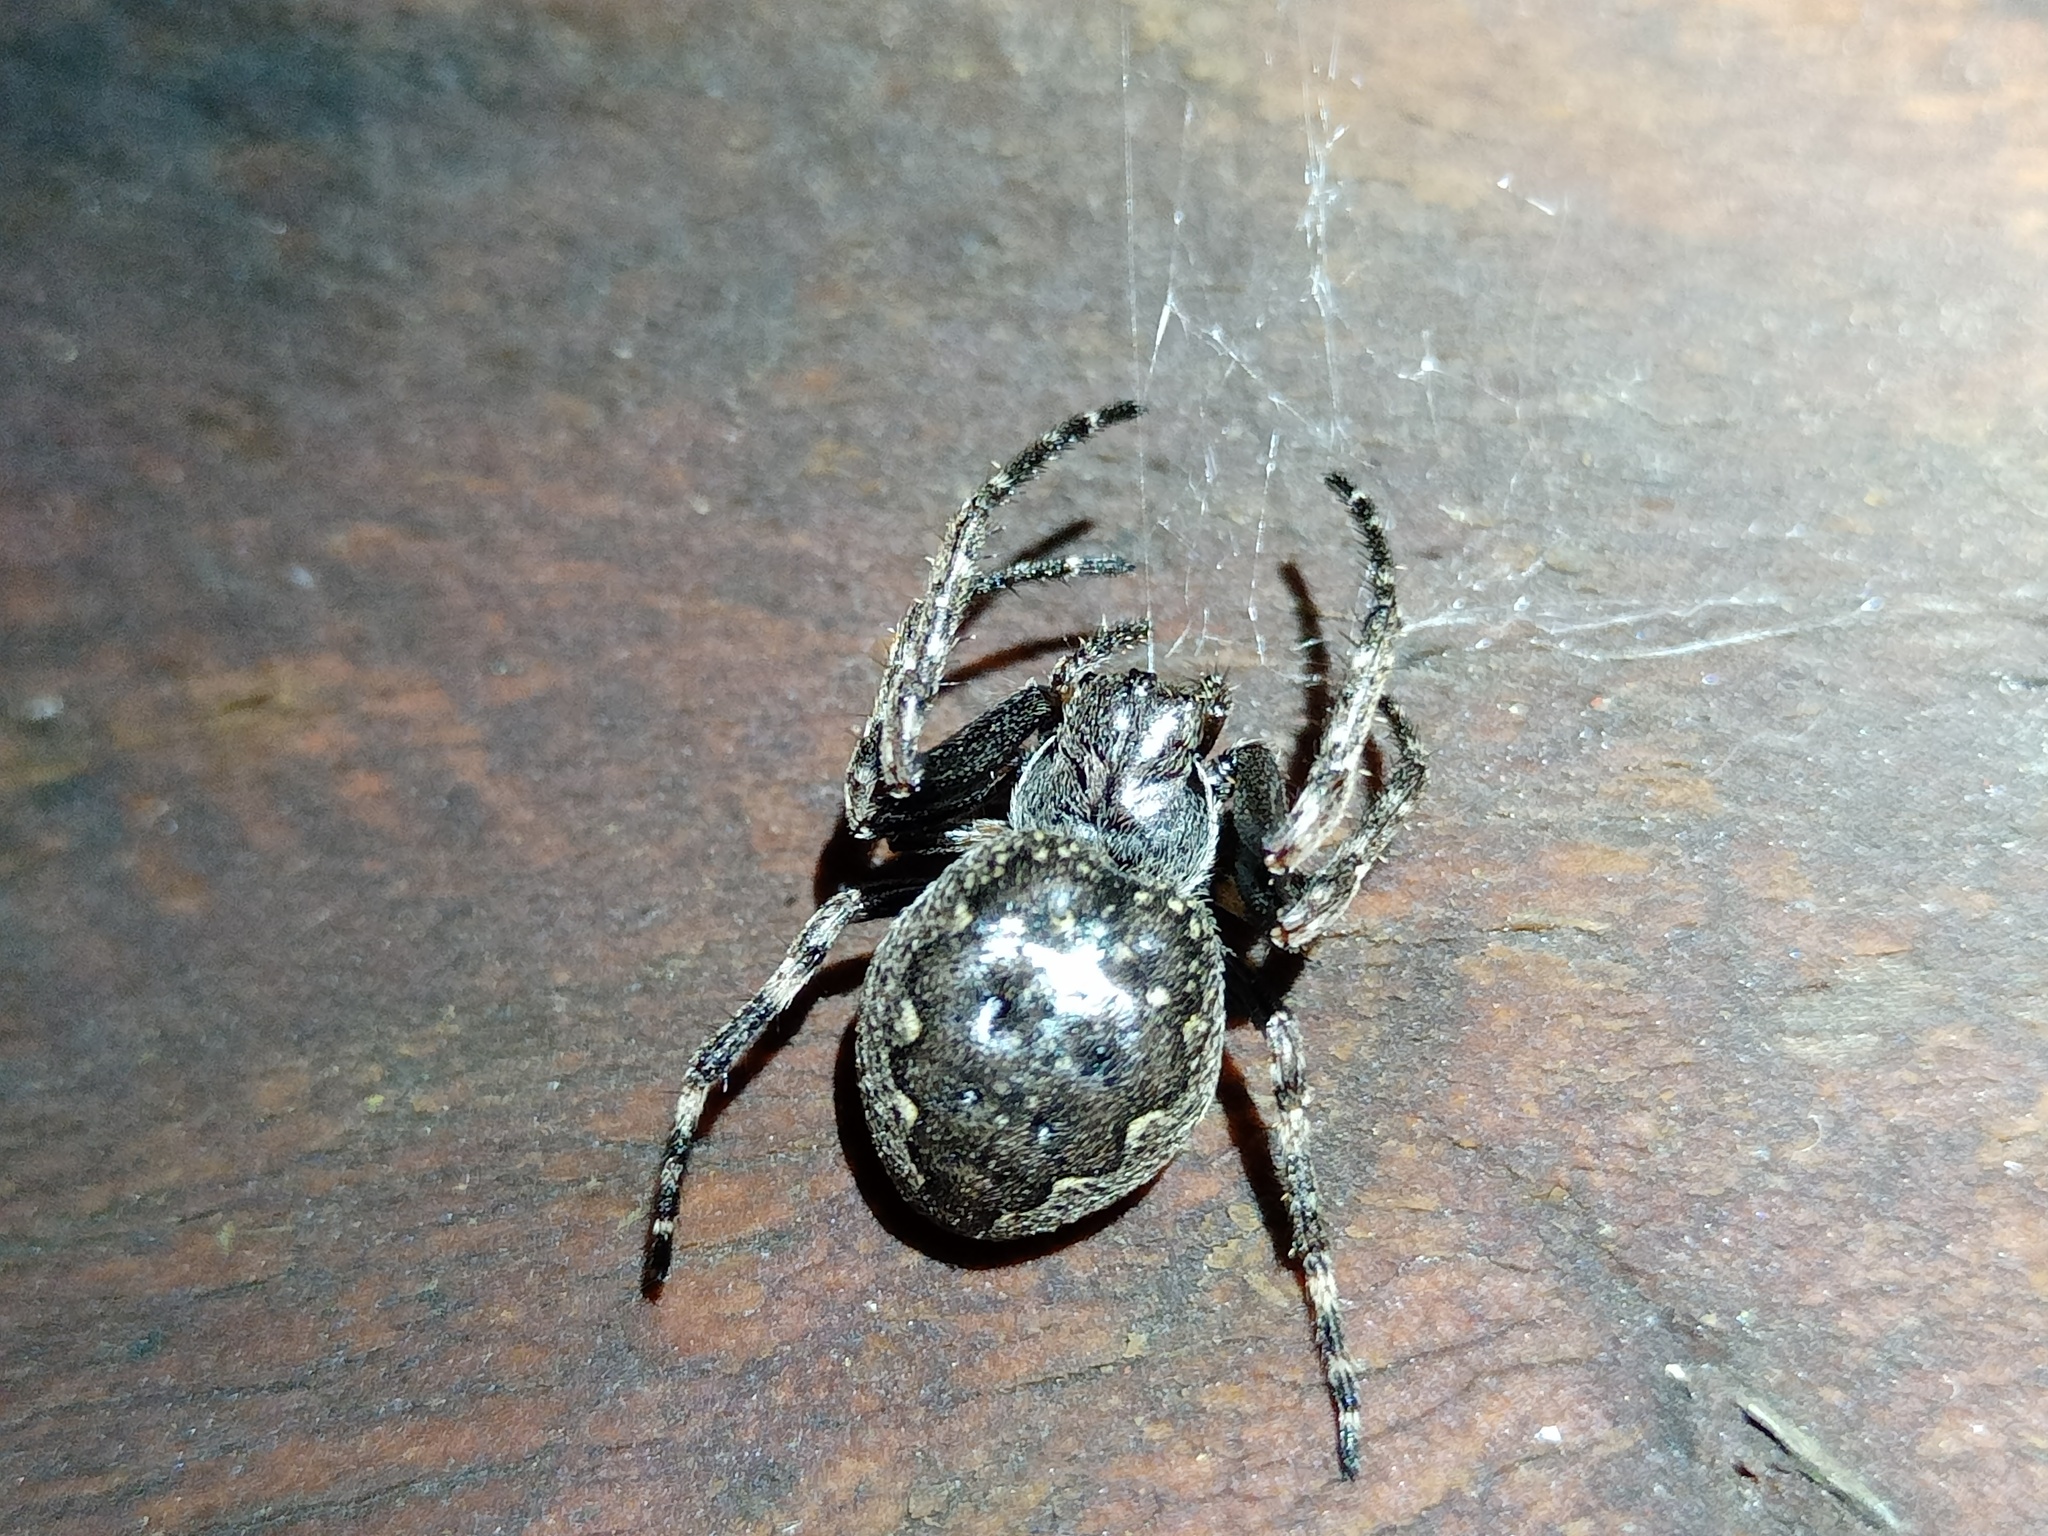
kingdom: Animalia
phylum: Arthropoda
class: Arachnida
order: Araneae
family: Araneidae
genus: Nuctenea
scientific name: Nuctenea umbratica
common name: Toad spider
